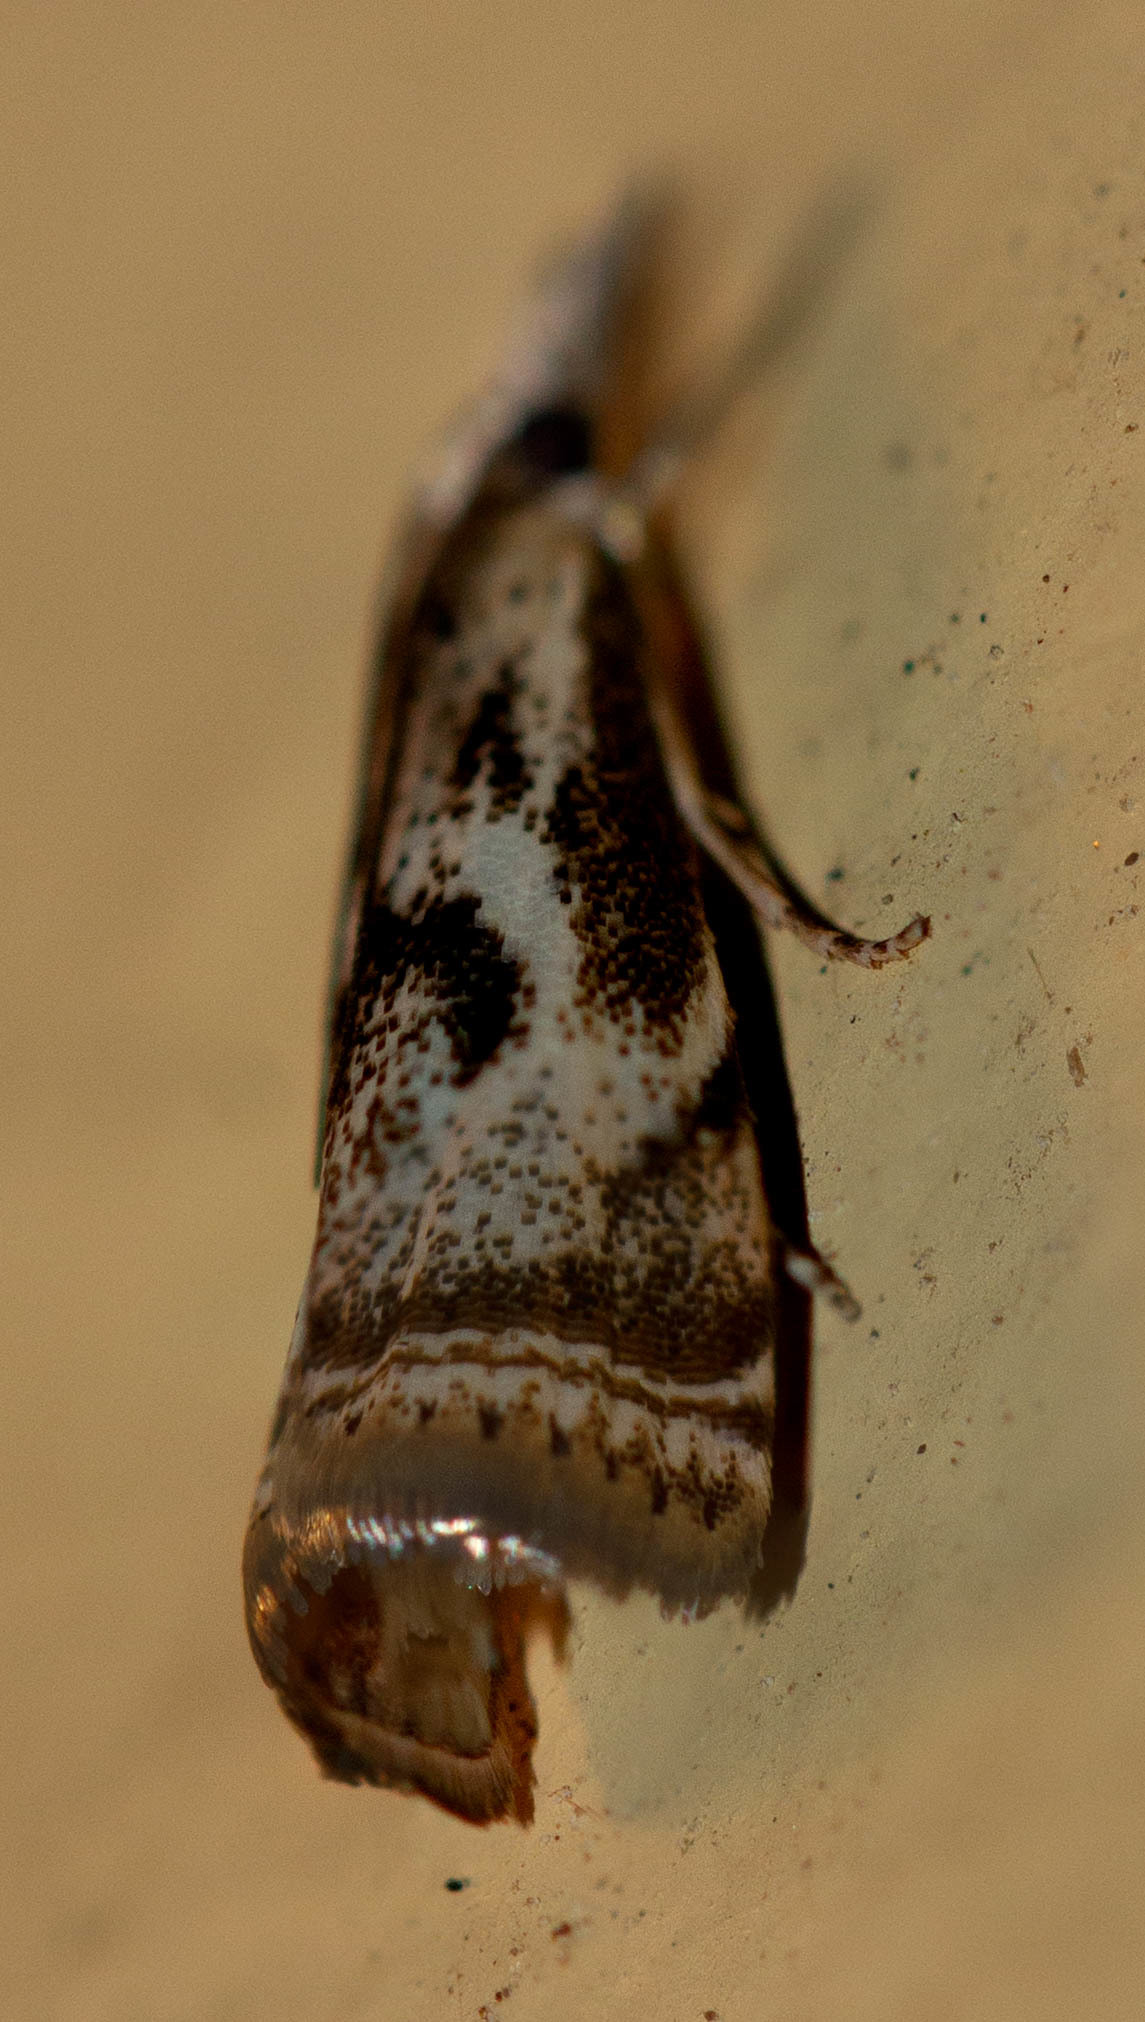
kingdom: Animalia
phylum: Arthropoda
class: Insecta
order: Lepidoptera
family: Crambidae
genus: Microcrambus
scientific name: Microcrambus elegans
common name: Elegant grass-veneer
